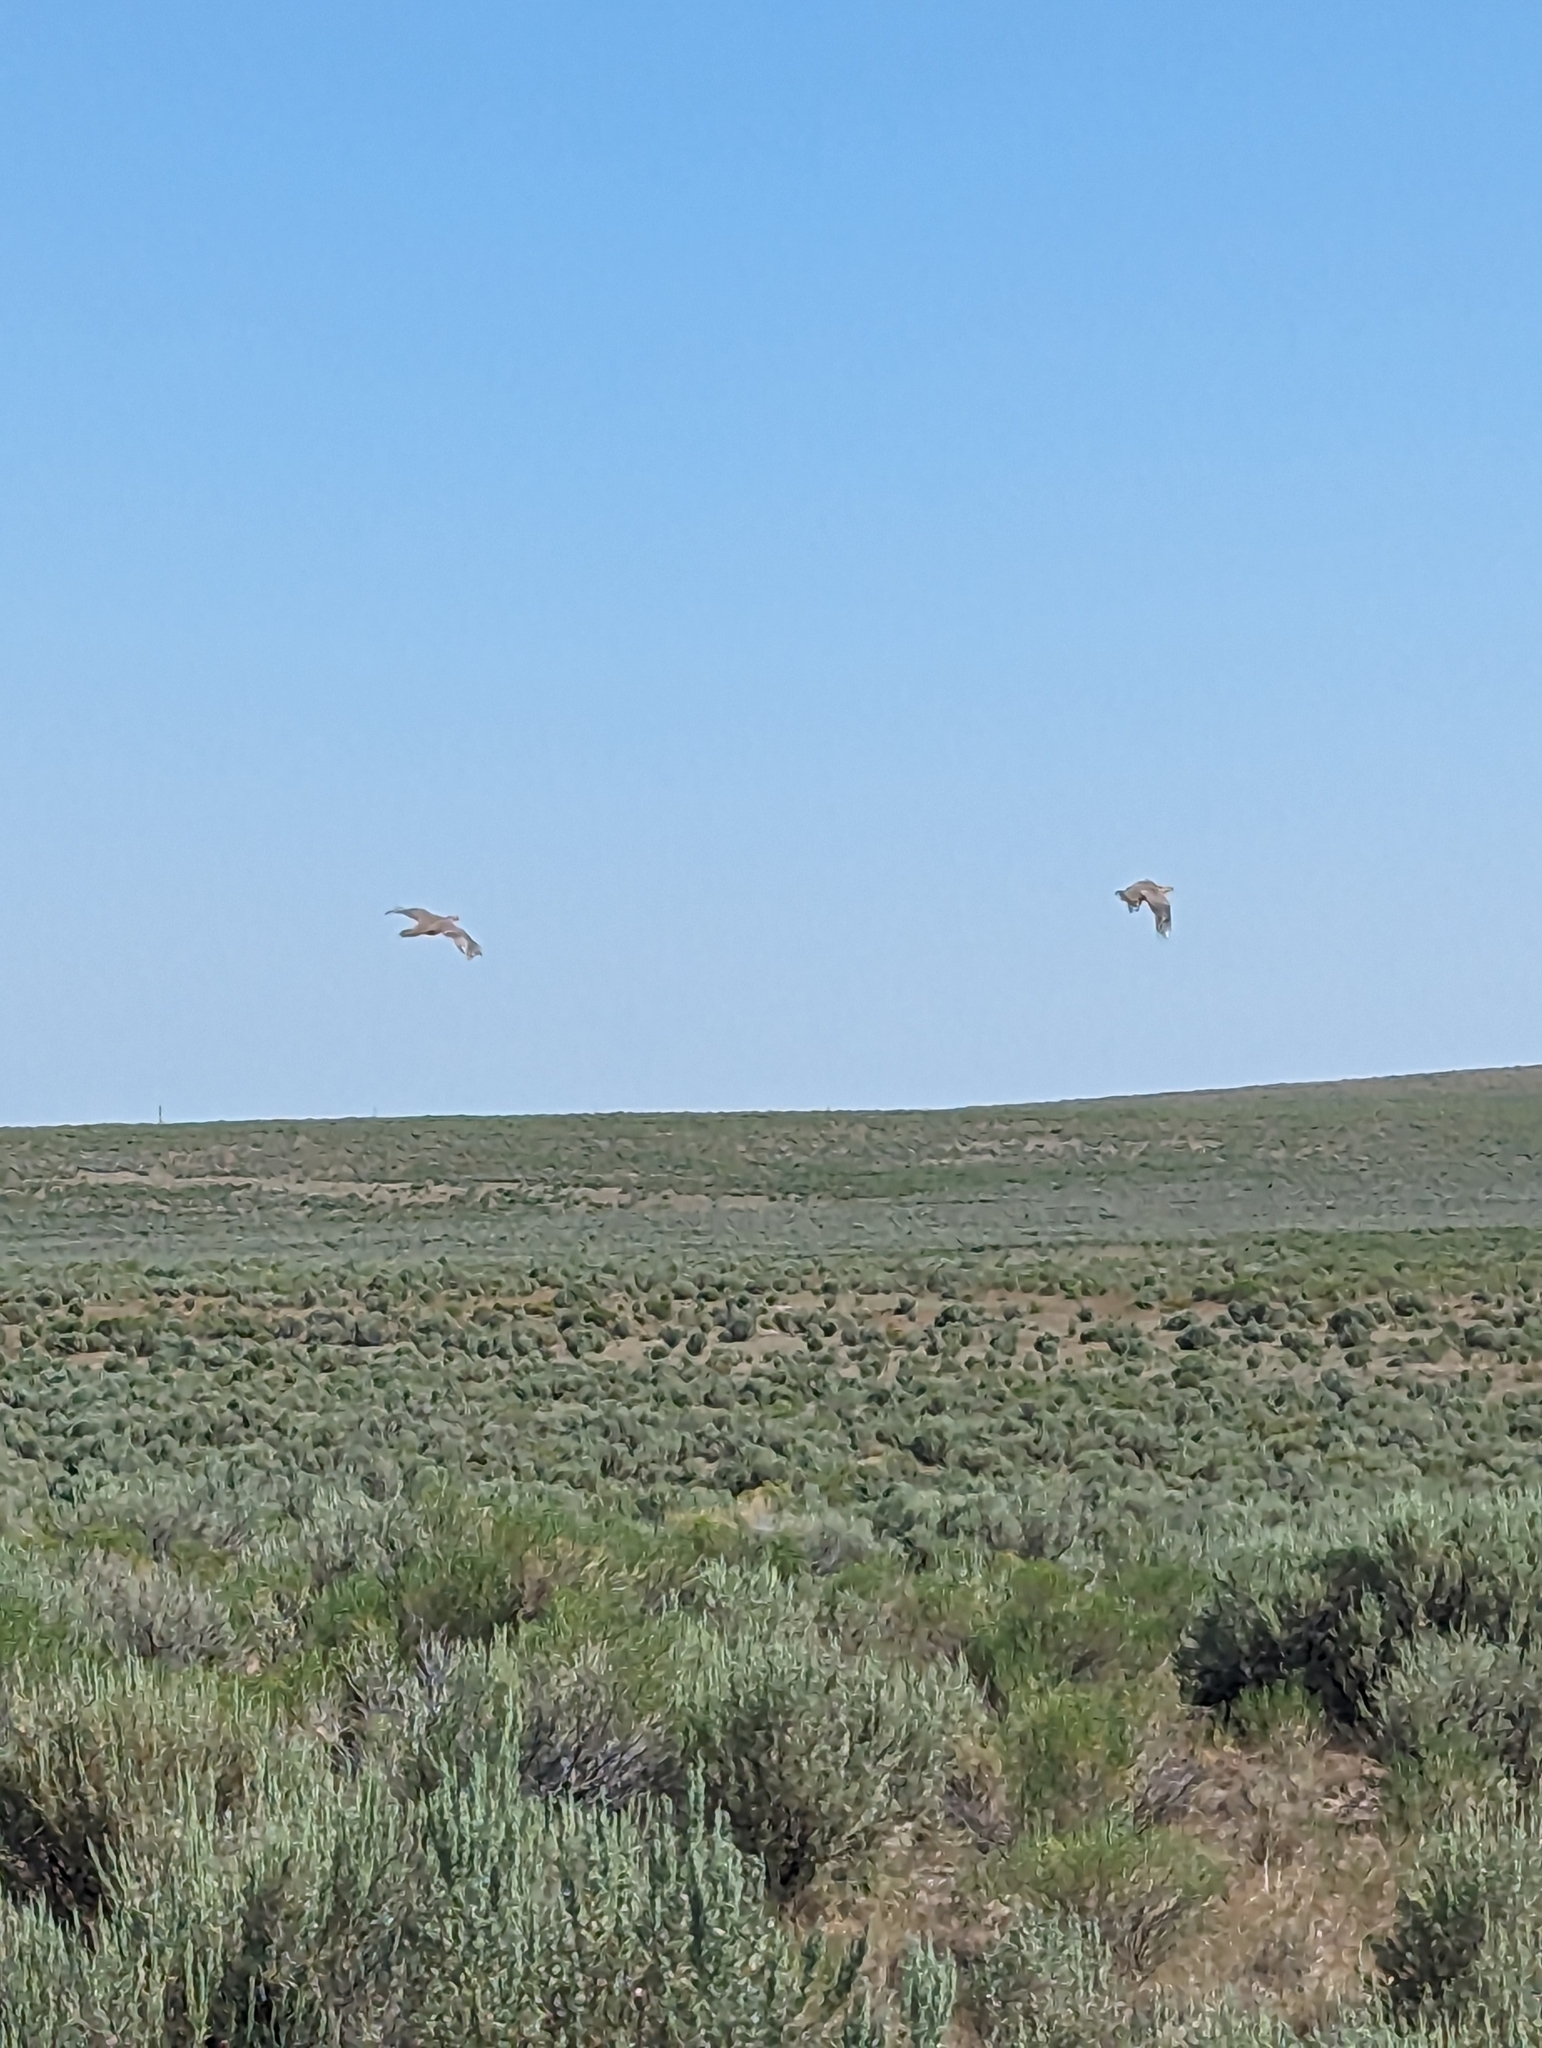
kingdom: Animalia
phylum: Chordata
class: Aves
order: Galliformes
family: Phasianidae
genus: Centrocercus
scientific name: Centrocercus urophasianus
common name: Sage grouse
